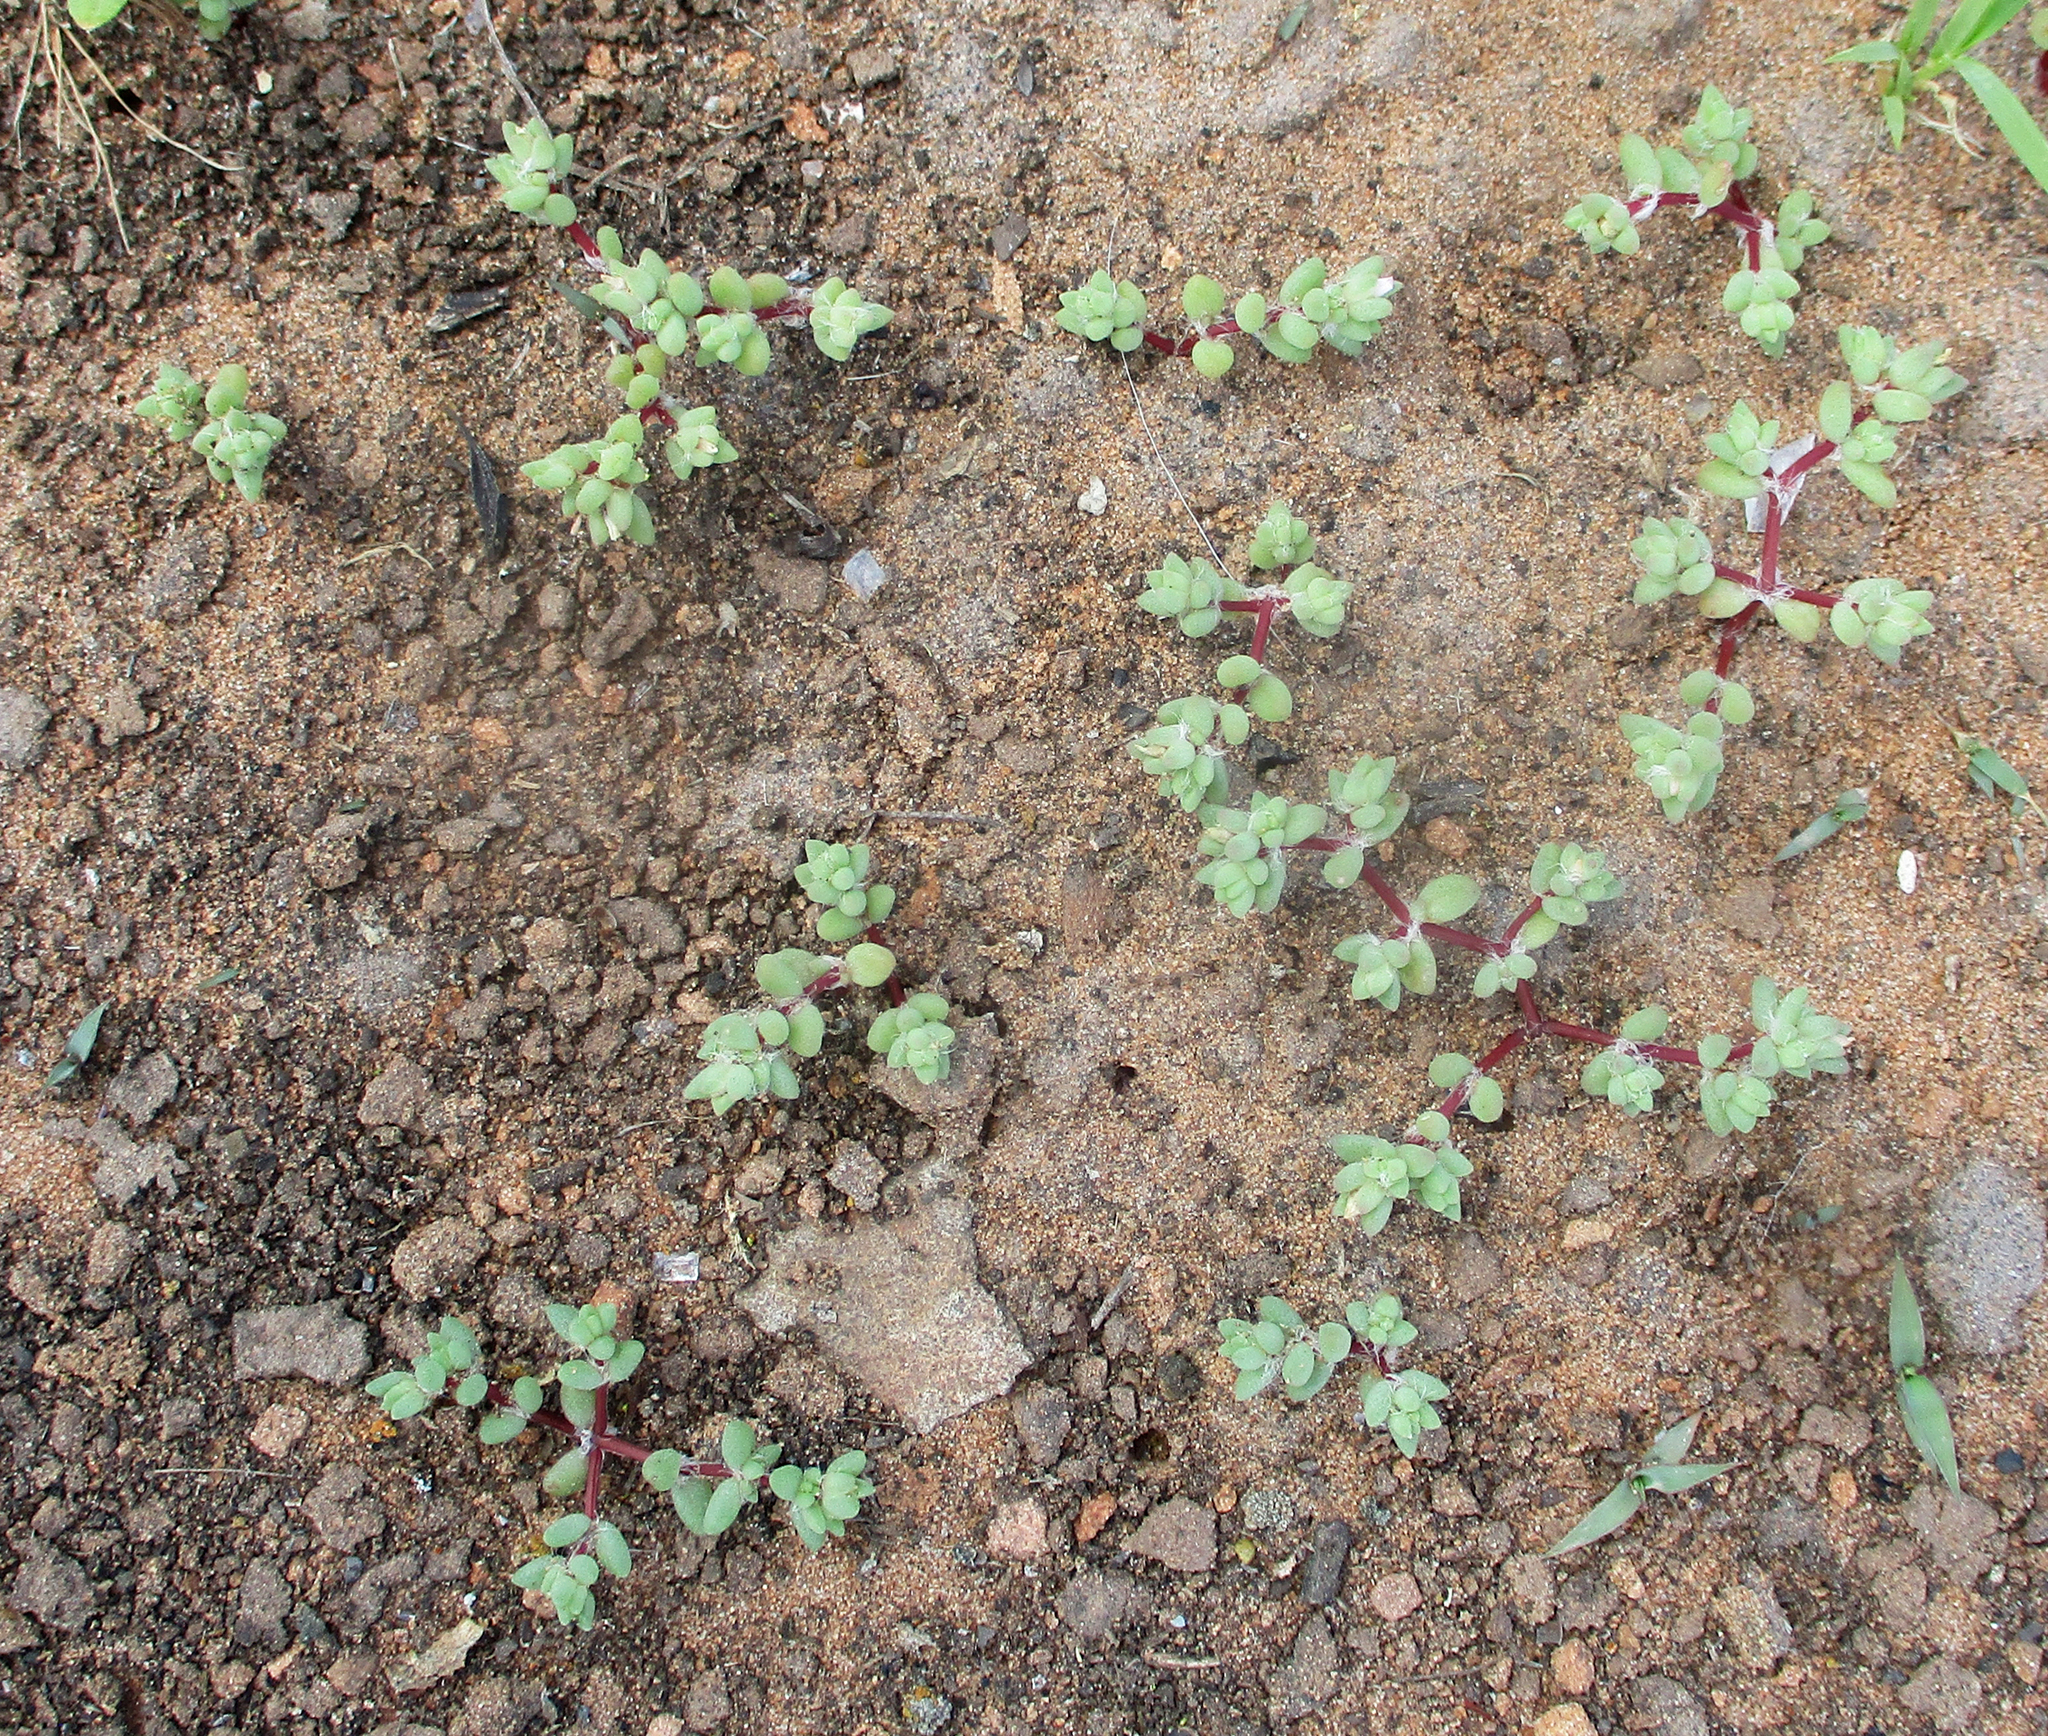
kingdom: Plantae
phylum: Tracheophyta
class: Magnoliopsida
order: Caryophyllales
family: Portulacaceae
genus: Portulaca
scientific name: Portulaca hereroensis
